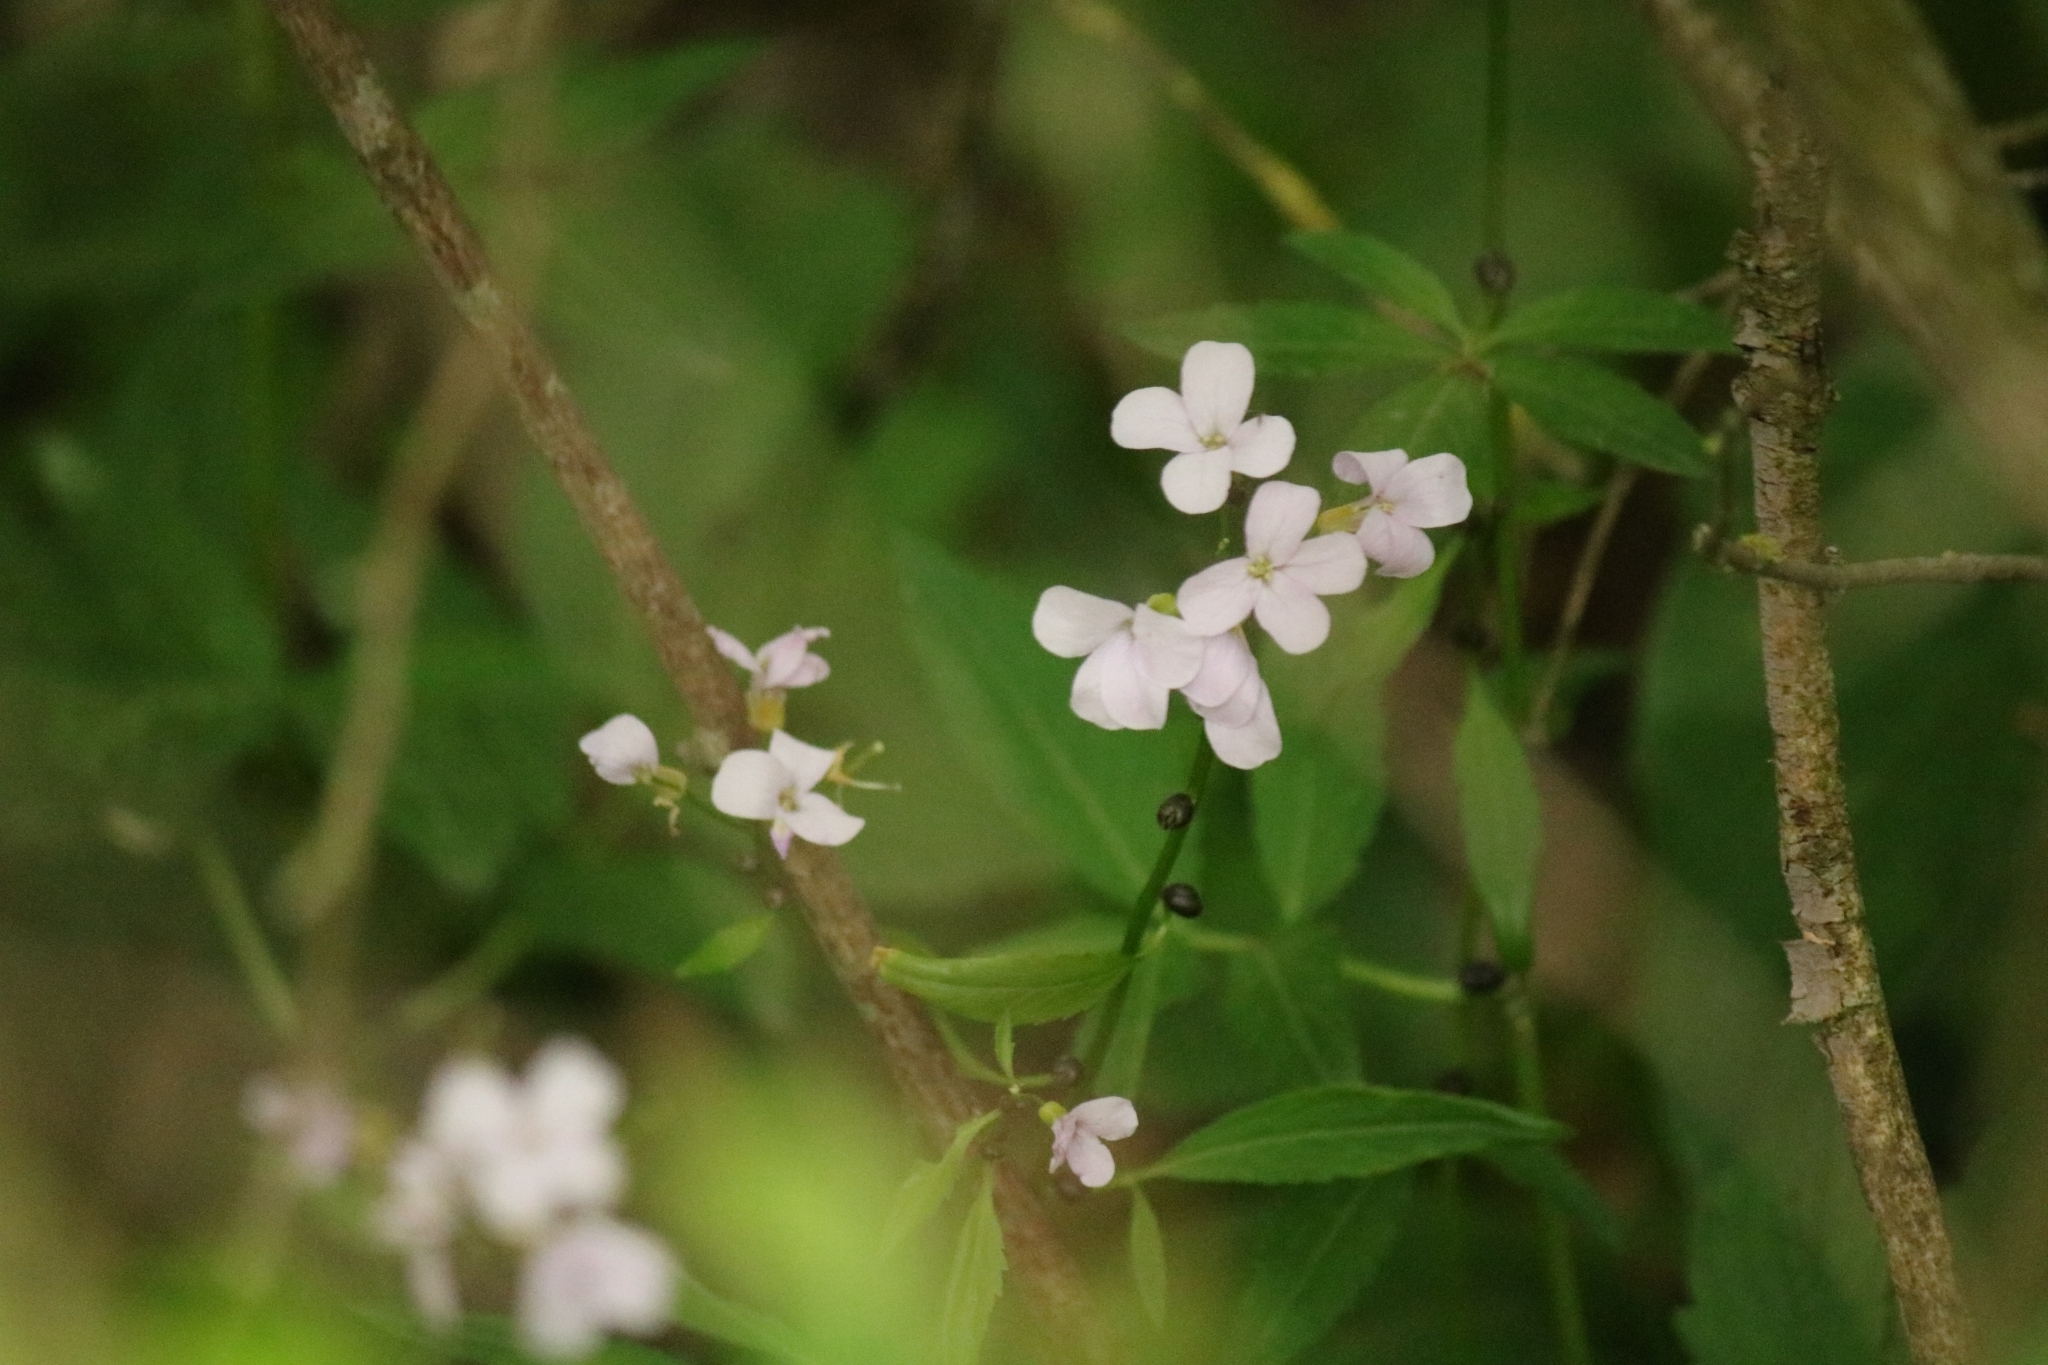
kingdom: Plantae
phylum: Tracheophyta
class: Magnoliopsida
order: Brassicales
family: Brassicaceae
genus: Cardamine
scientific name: Cardamine bulbifera
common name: Coralroot bittercress
